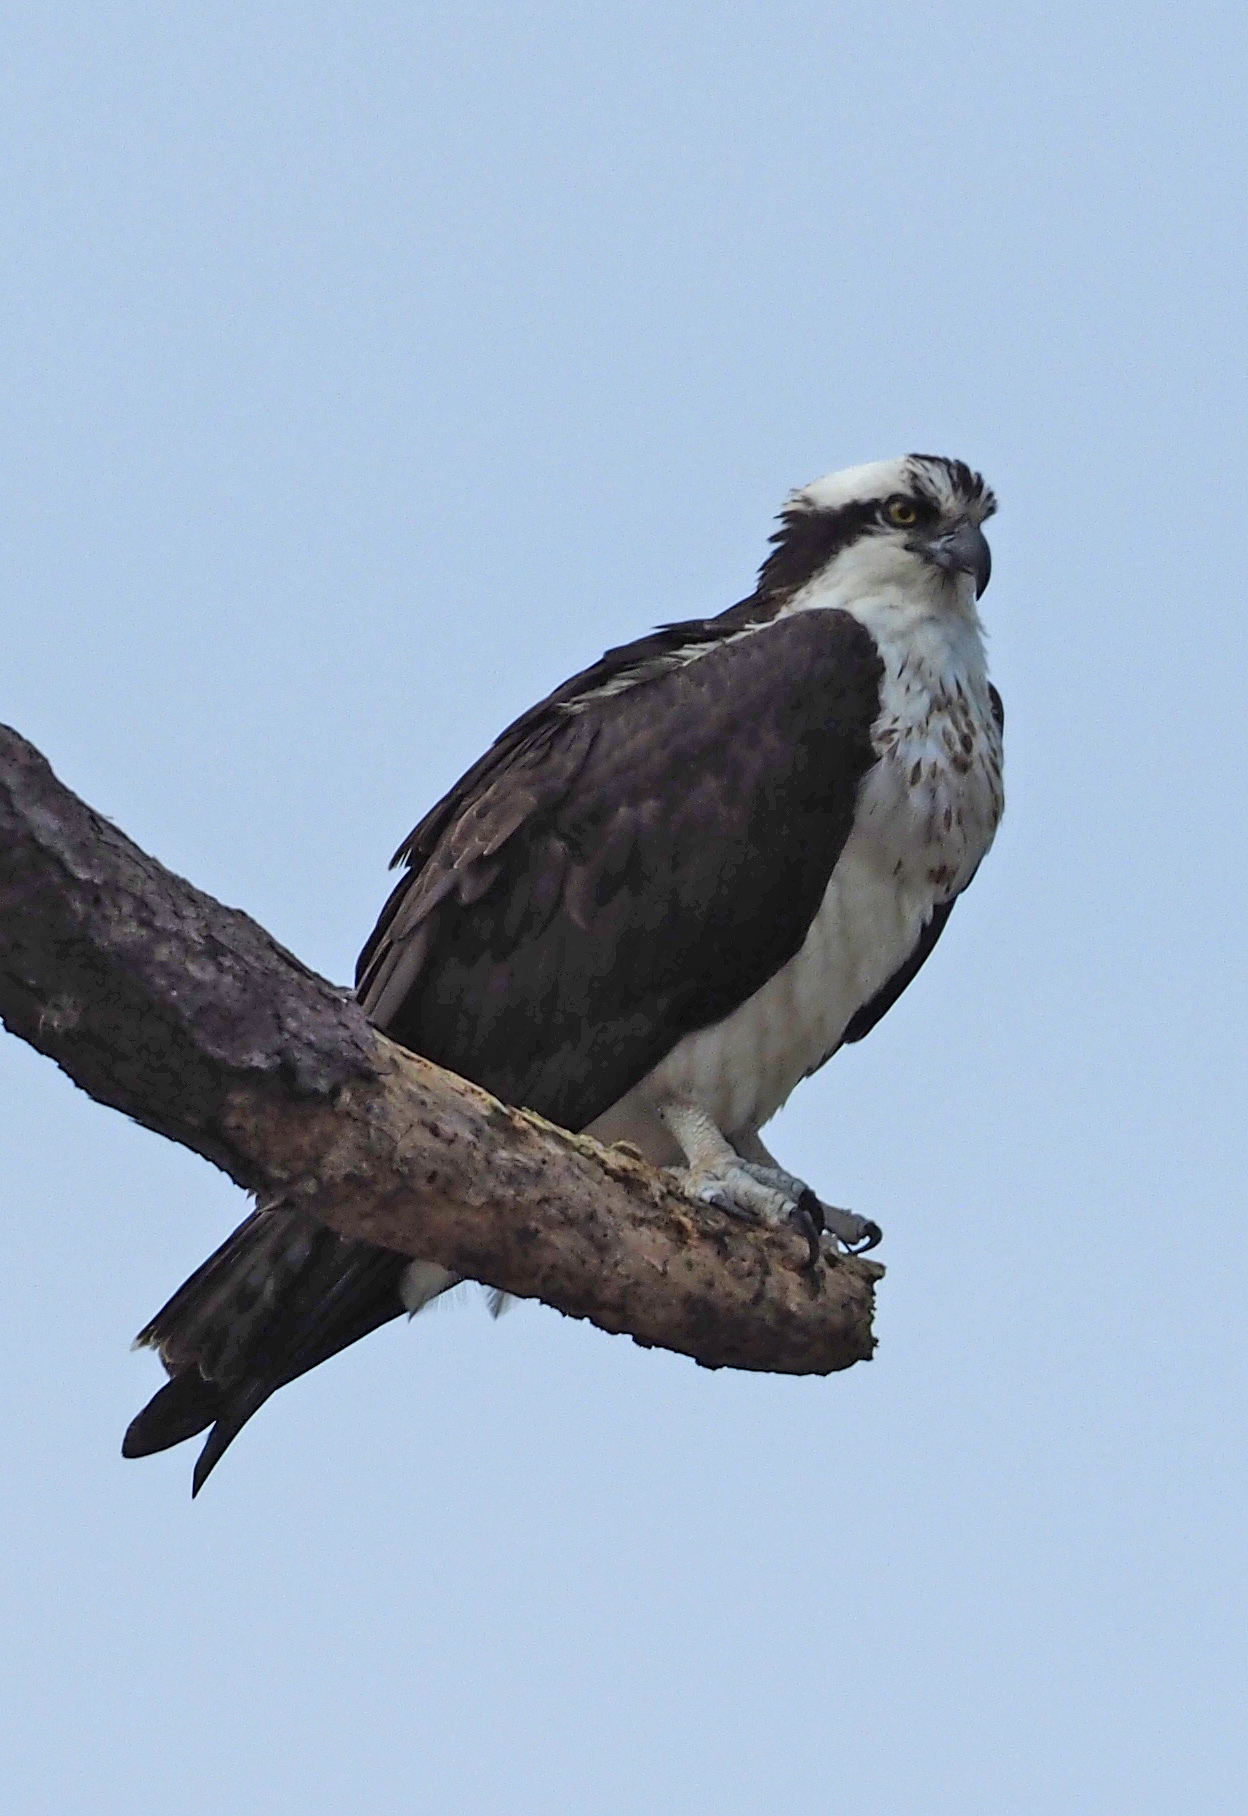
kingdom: Animalia
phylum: Chordata
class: Aves
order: Accipitriformes
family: Pandionidae
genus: Pandion
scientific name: Pandion haliaetus
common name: Osprey
